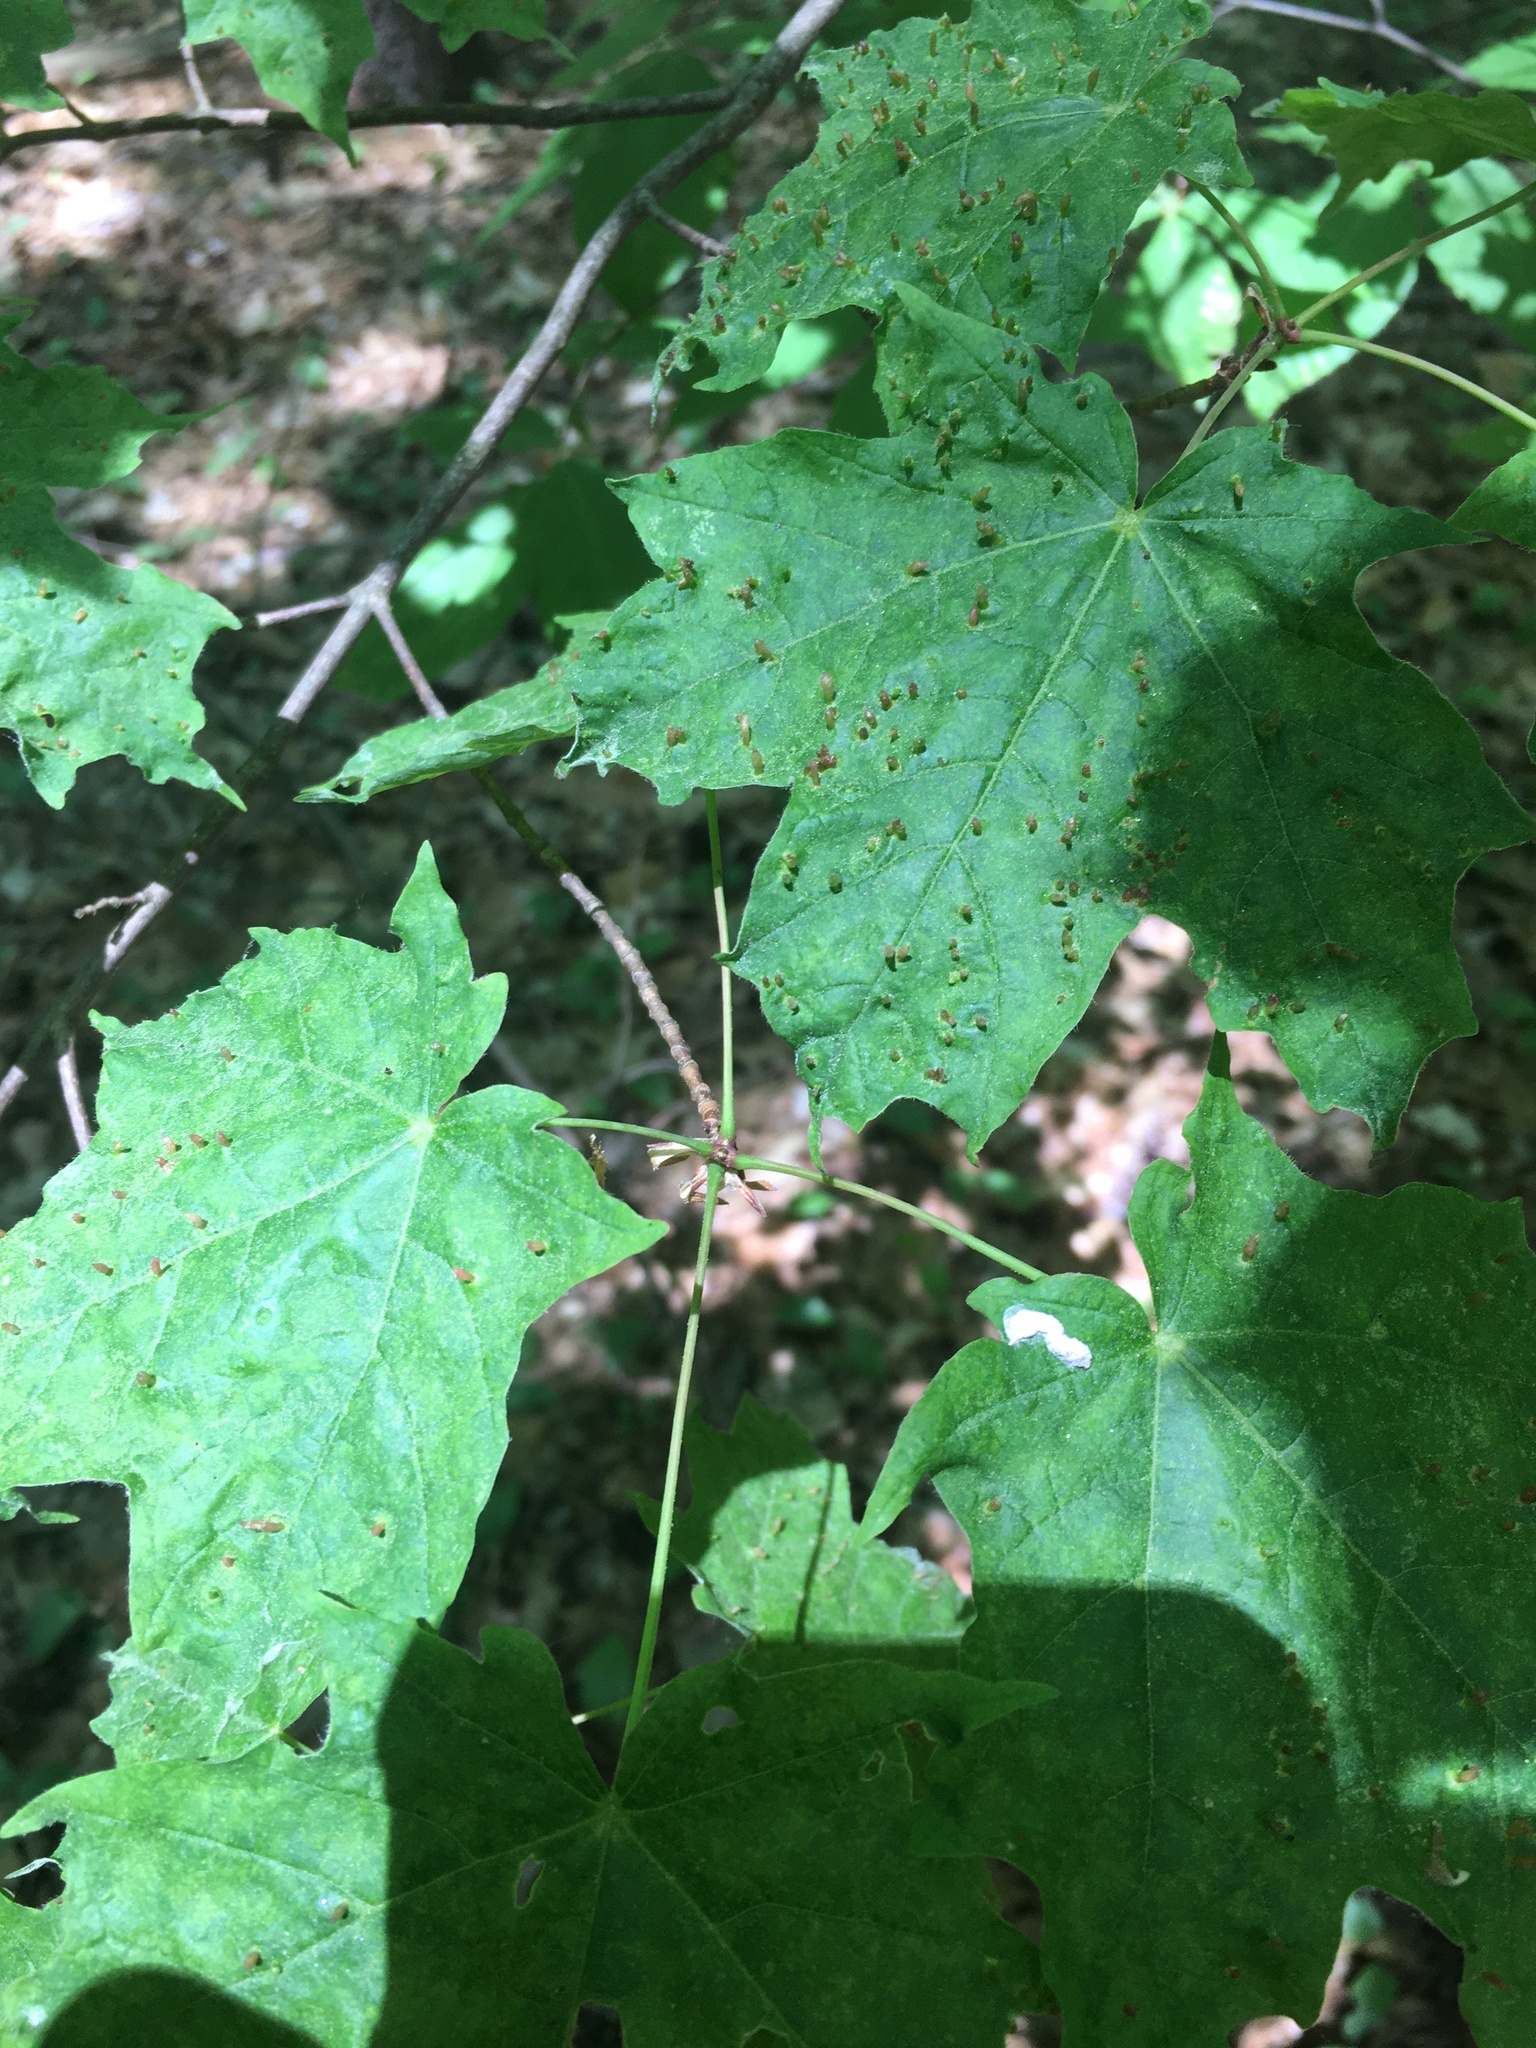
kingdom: Animalia
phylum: Arthropoda
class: Arachnida
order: Trombidiformes
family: Eriophyidae
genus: Vasates
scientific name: Vasates aceriscrumena
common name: Maple spindle gall mite
